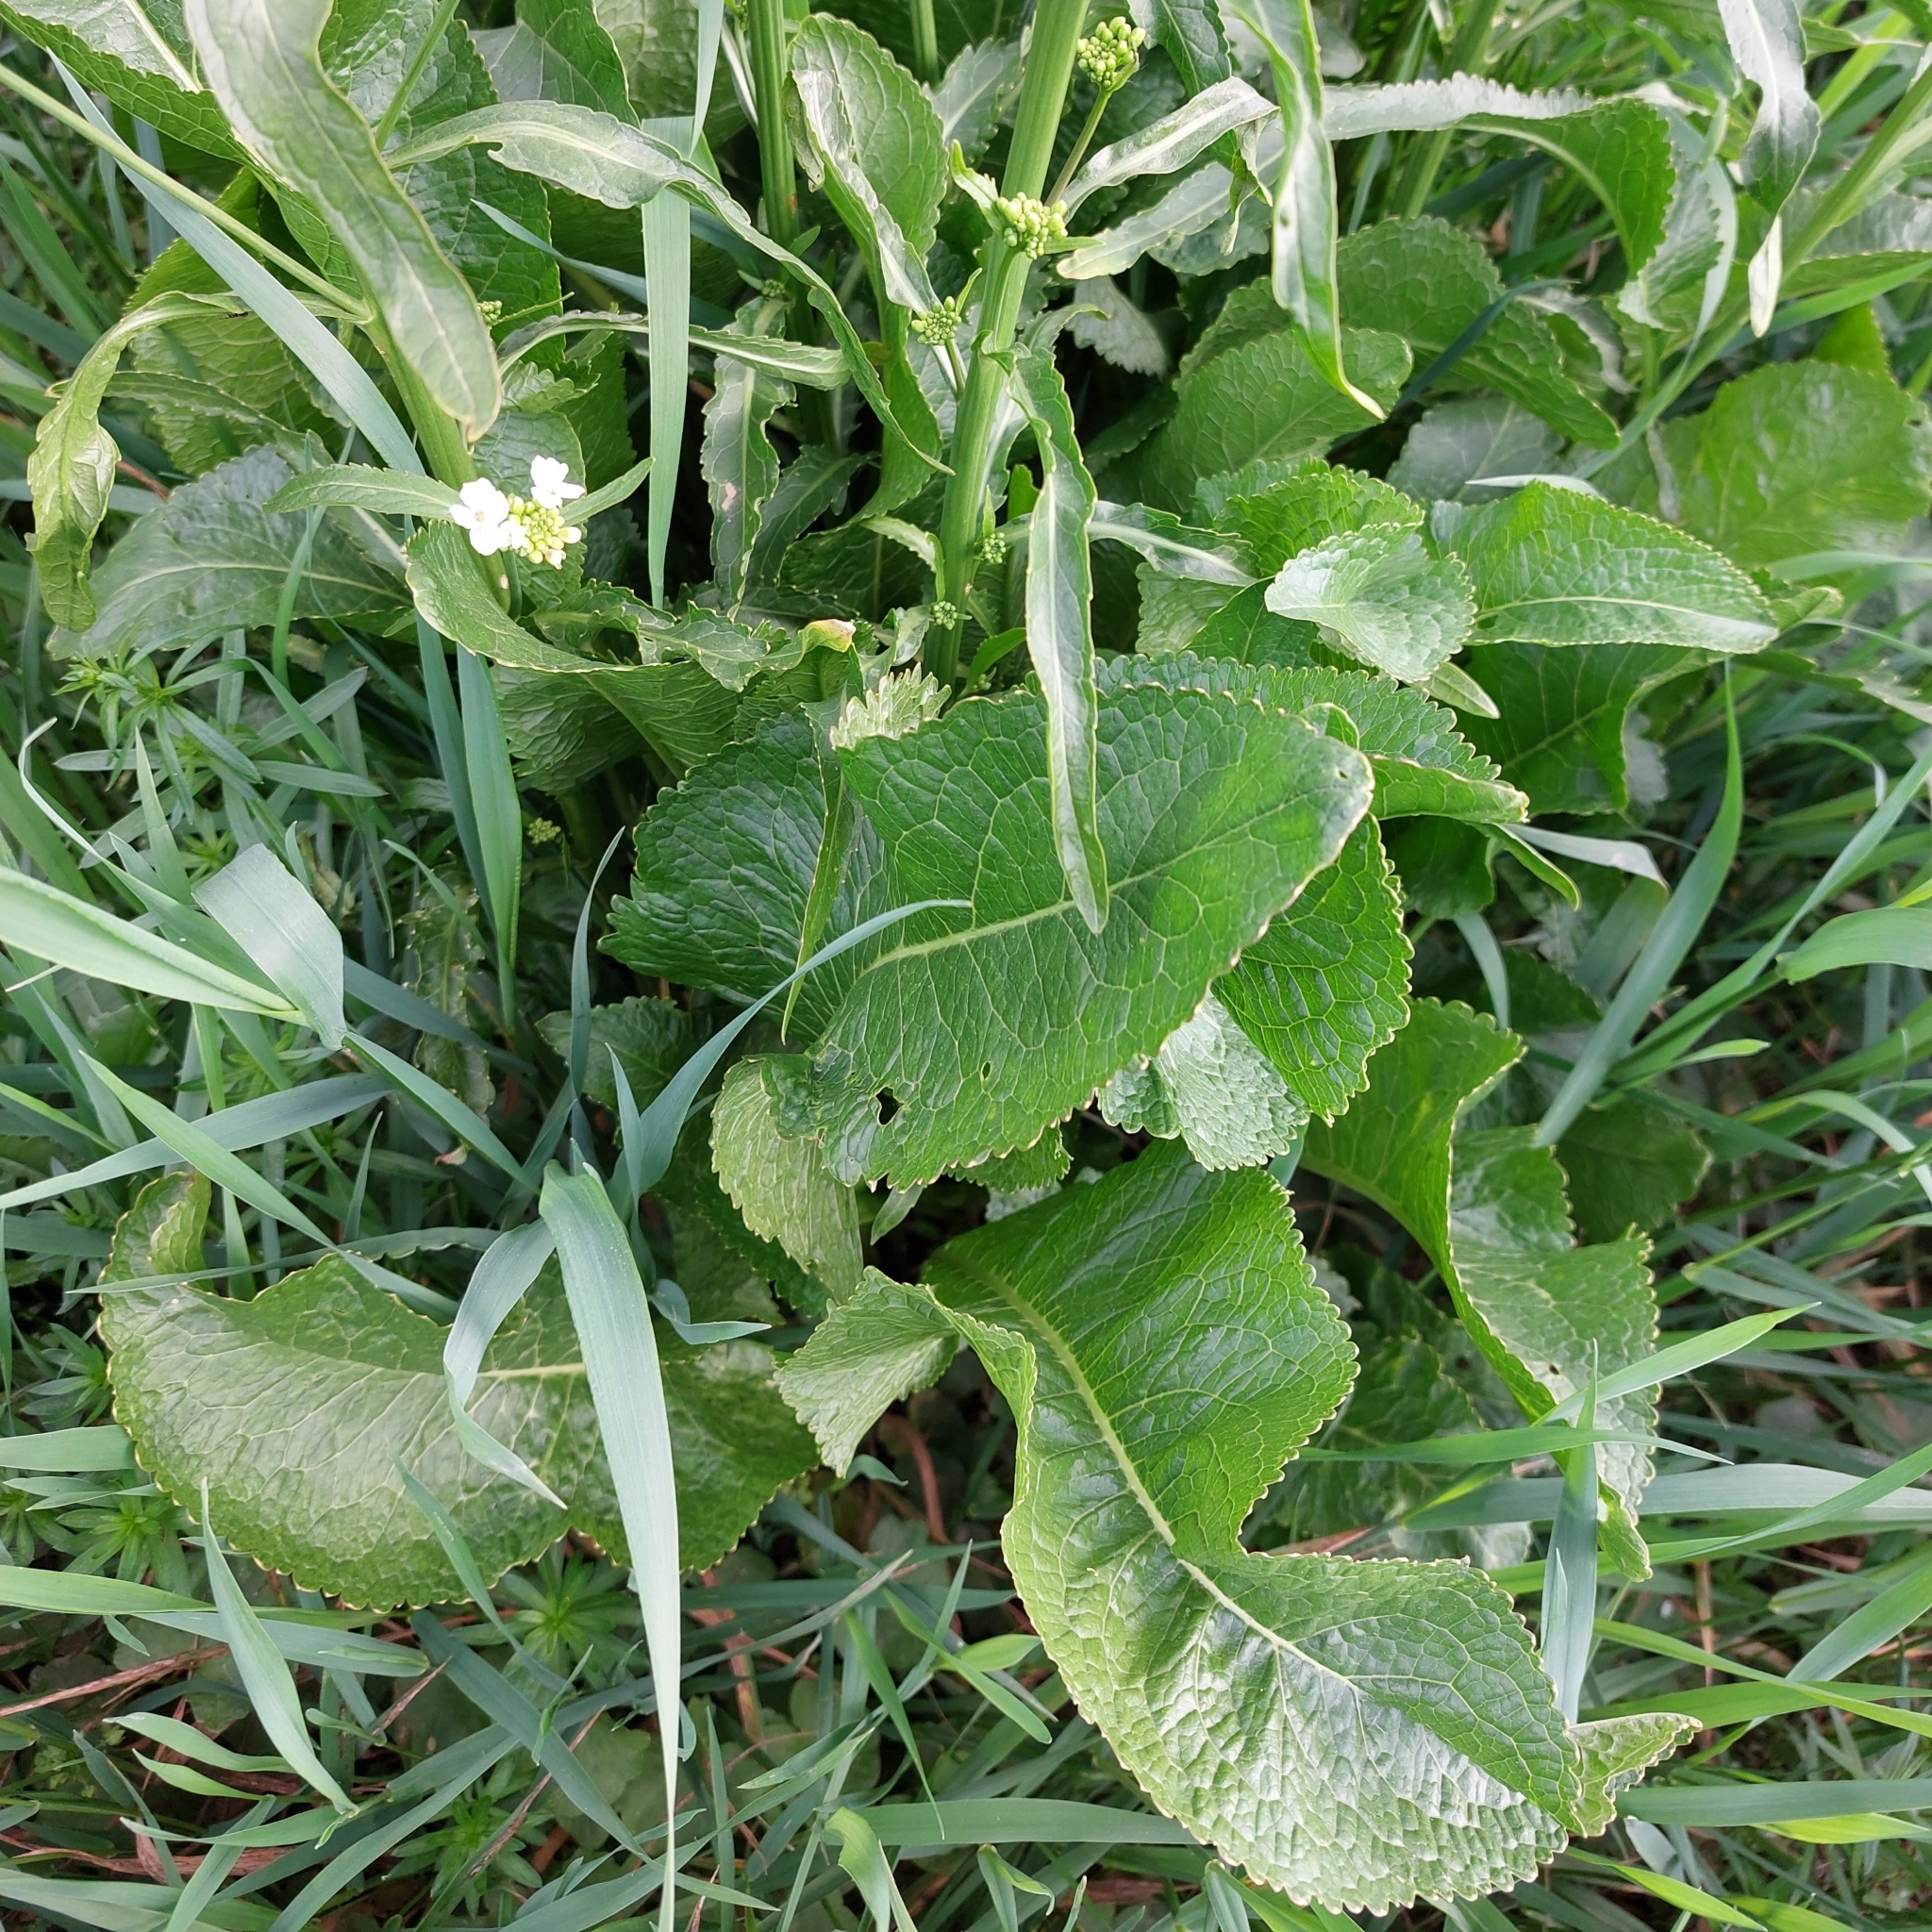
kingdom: Plantae
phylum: Tracheophyta
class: Magnoliopsida
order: Brassicales
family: Brassicaceae
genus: Armoracia
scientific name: Armoracia rusticana
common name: Horseradish
